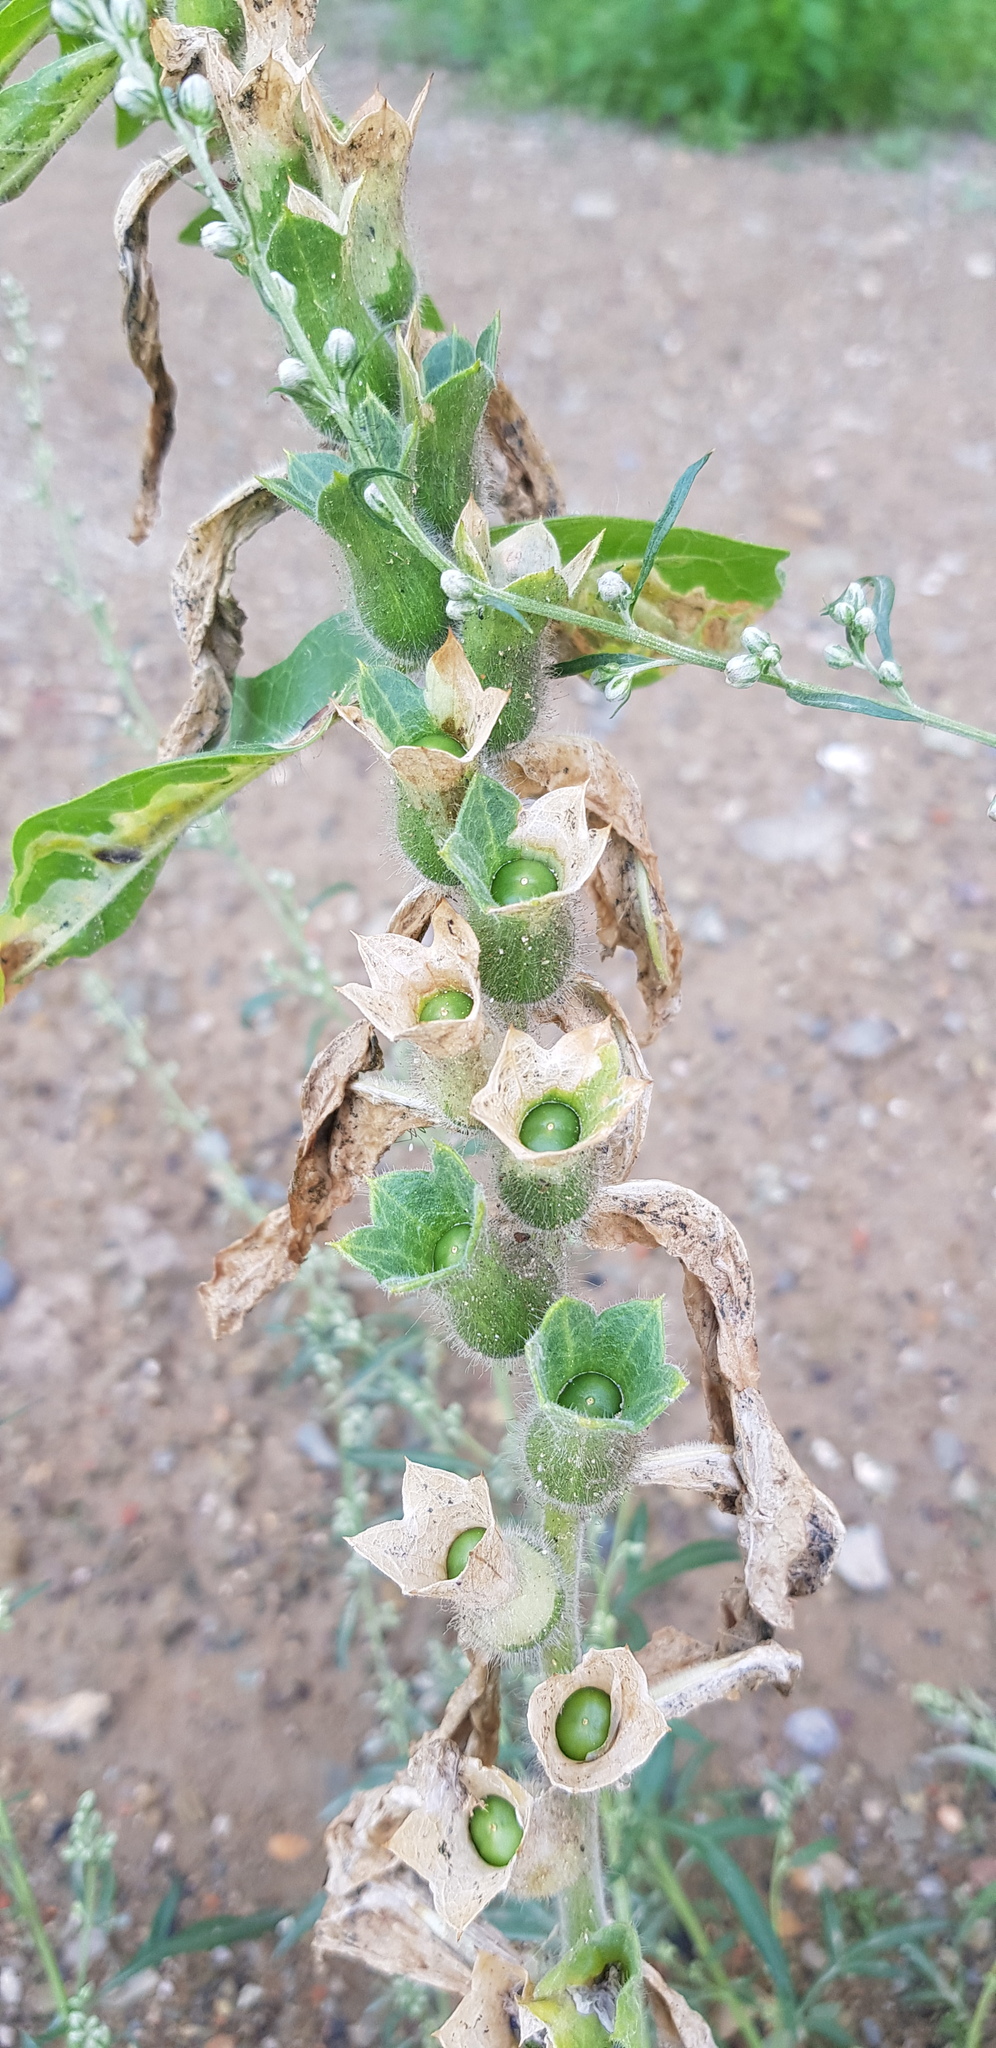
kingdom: Plantae
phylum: Tracheophyta
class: Magnoliopsida
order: Solanales
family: Solanaceae
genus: Hyoscyamus
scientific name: Hyoscyamus niger
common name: Henbane
